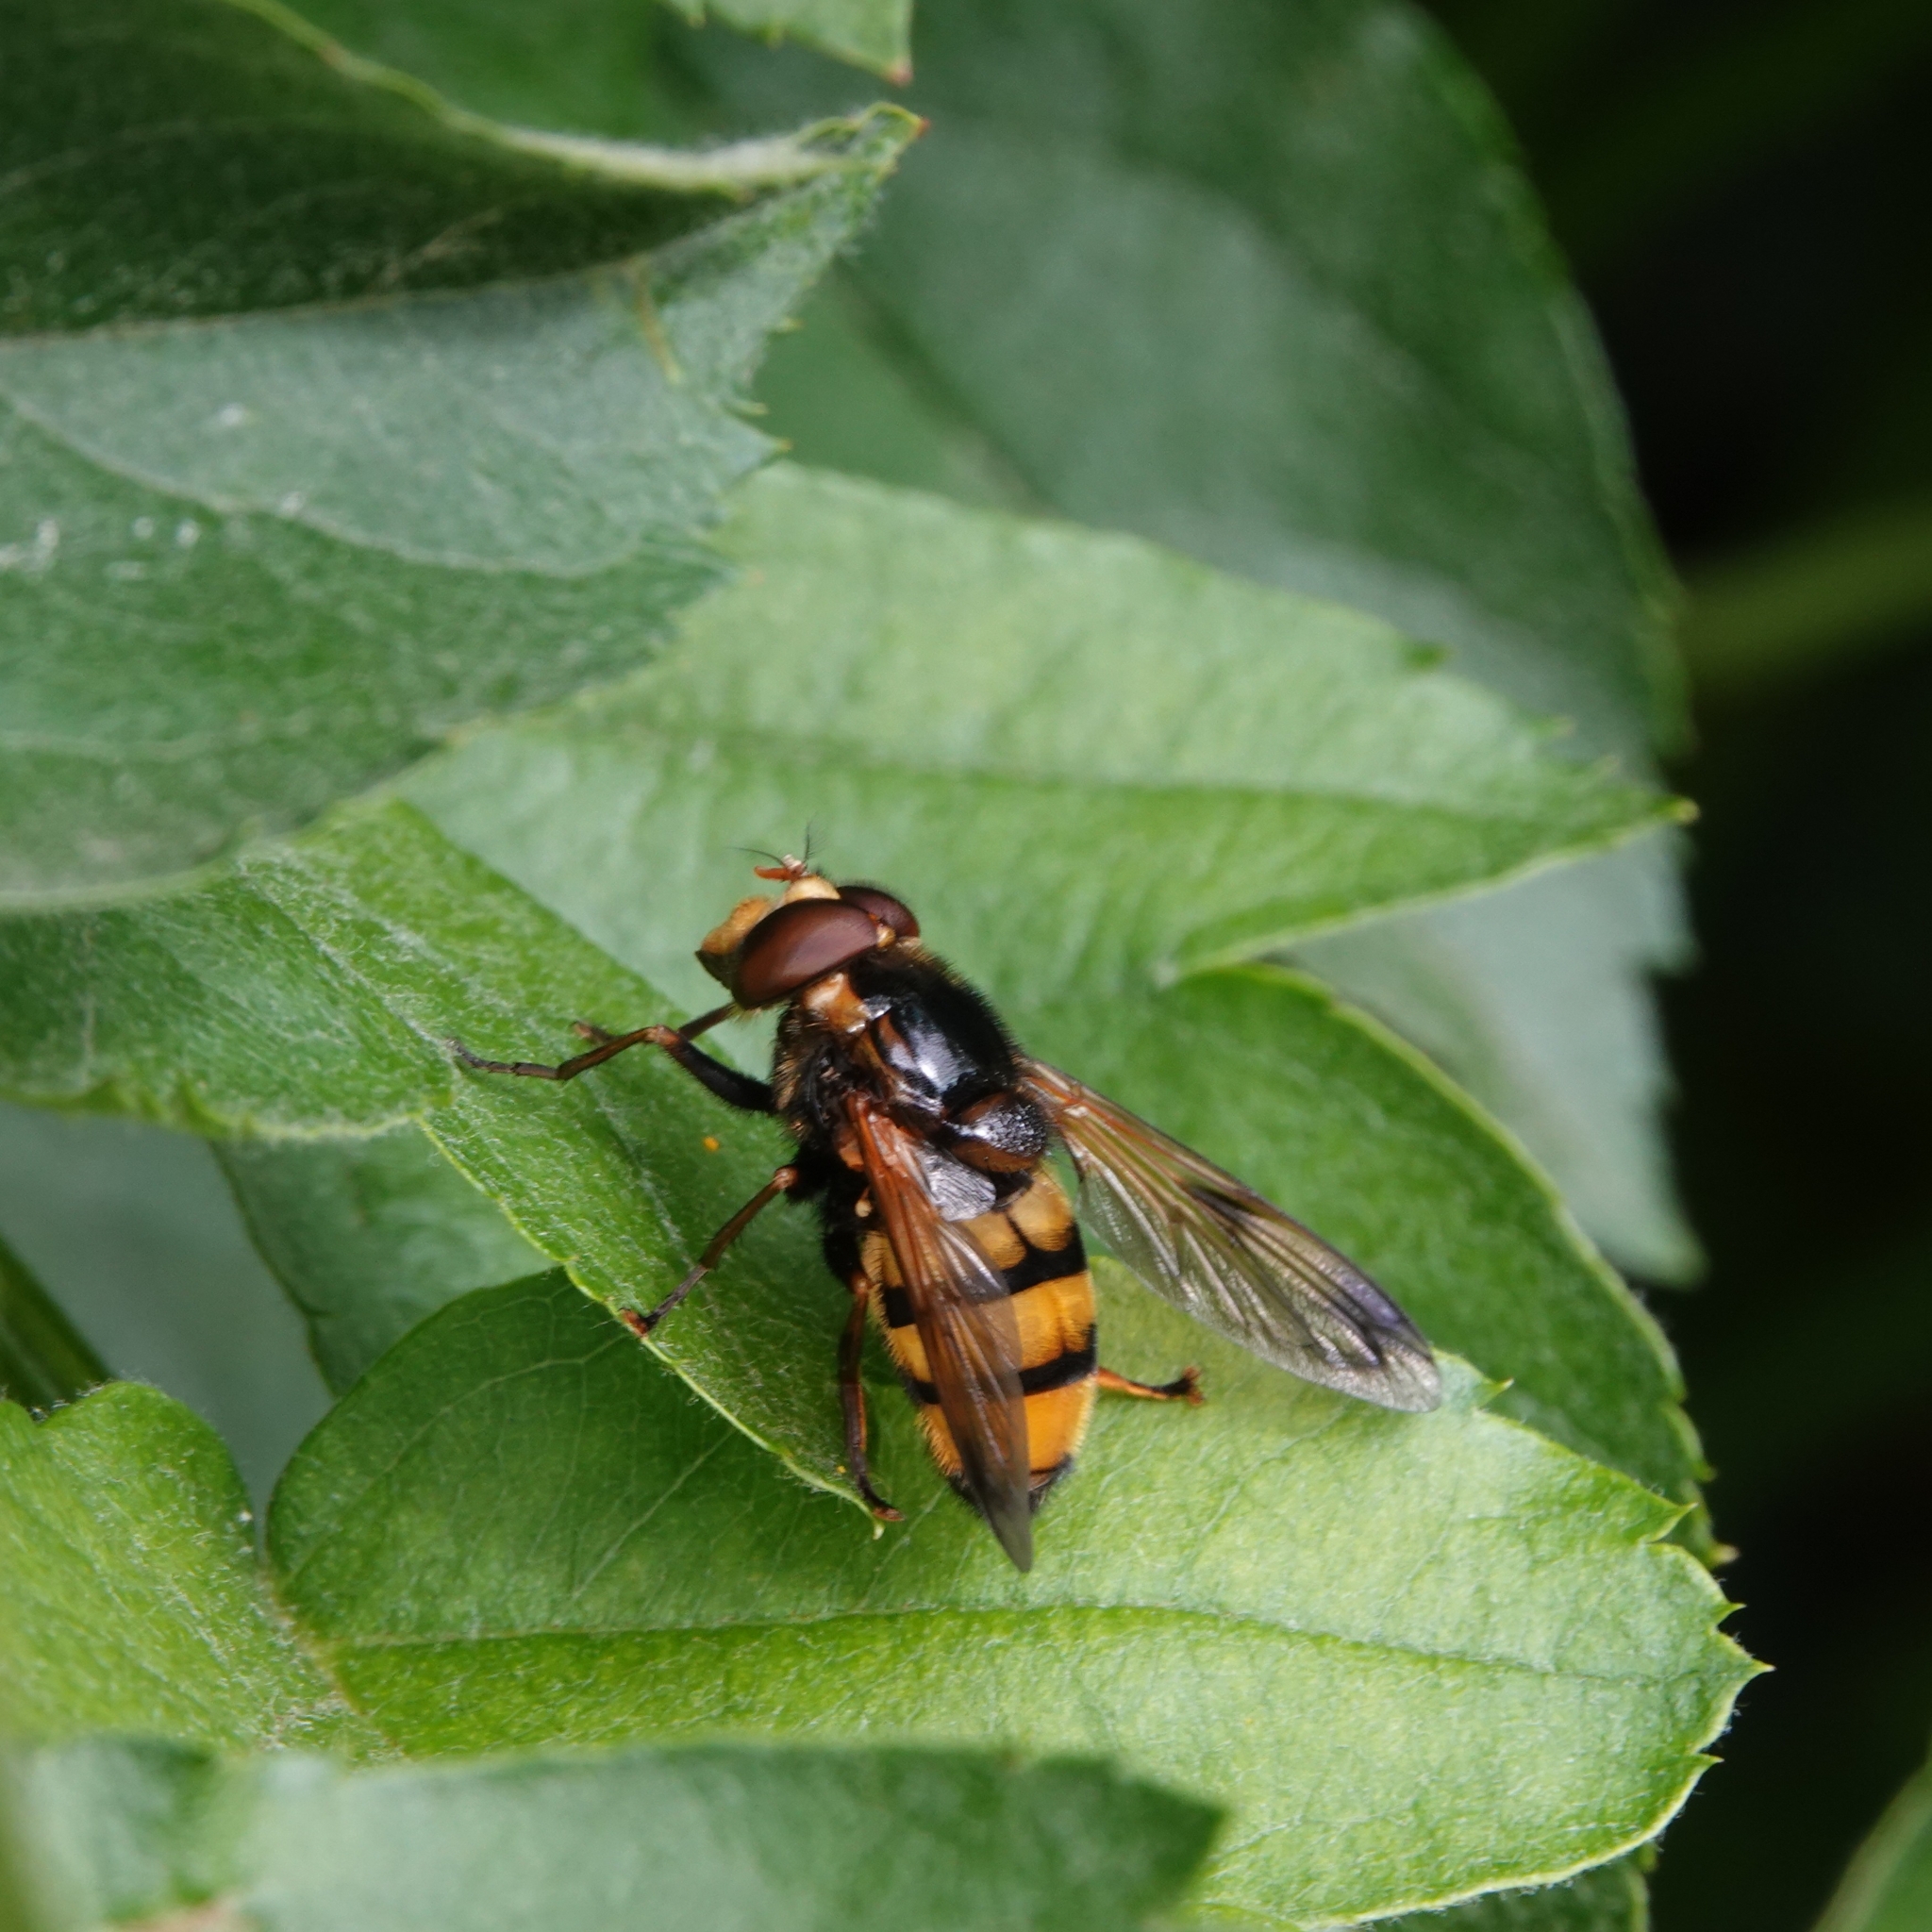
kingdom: Animalia
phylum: Arthropoda
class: Insecta
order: Diptera
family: Syrphidae
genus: Volucella
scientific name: Volucella inanis
